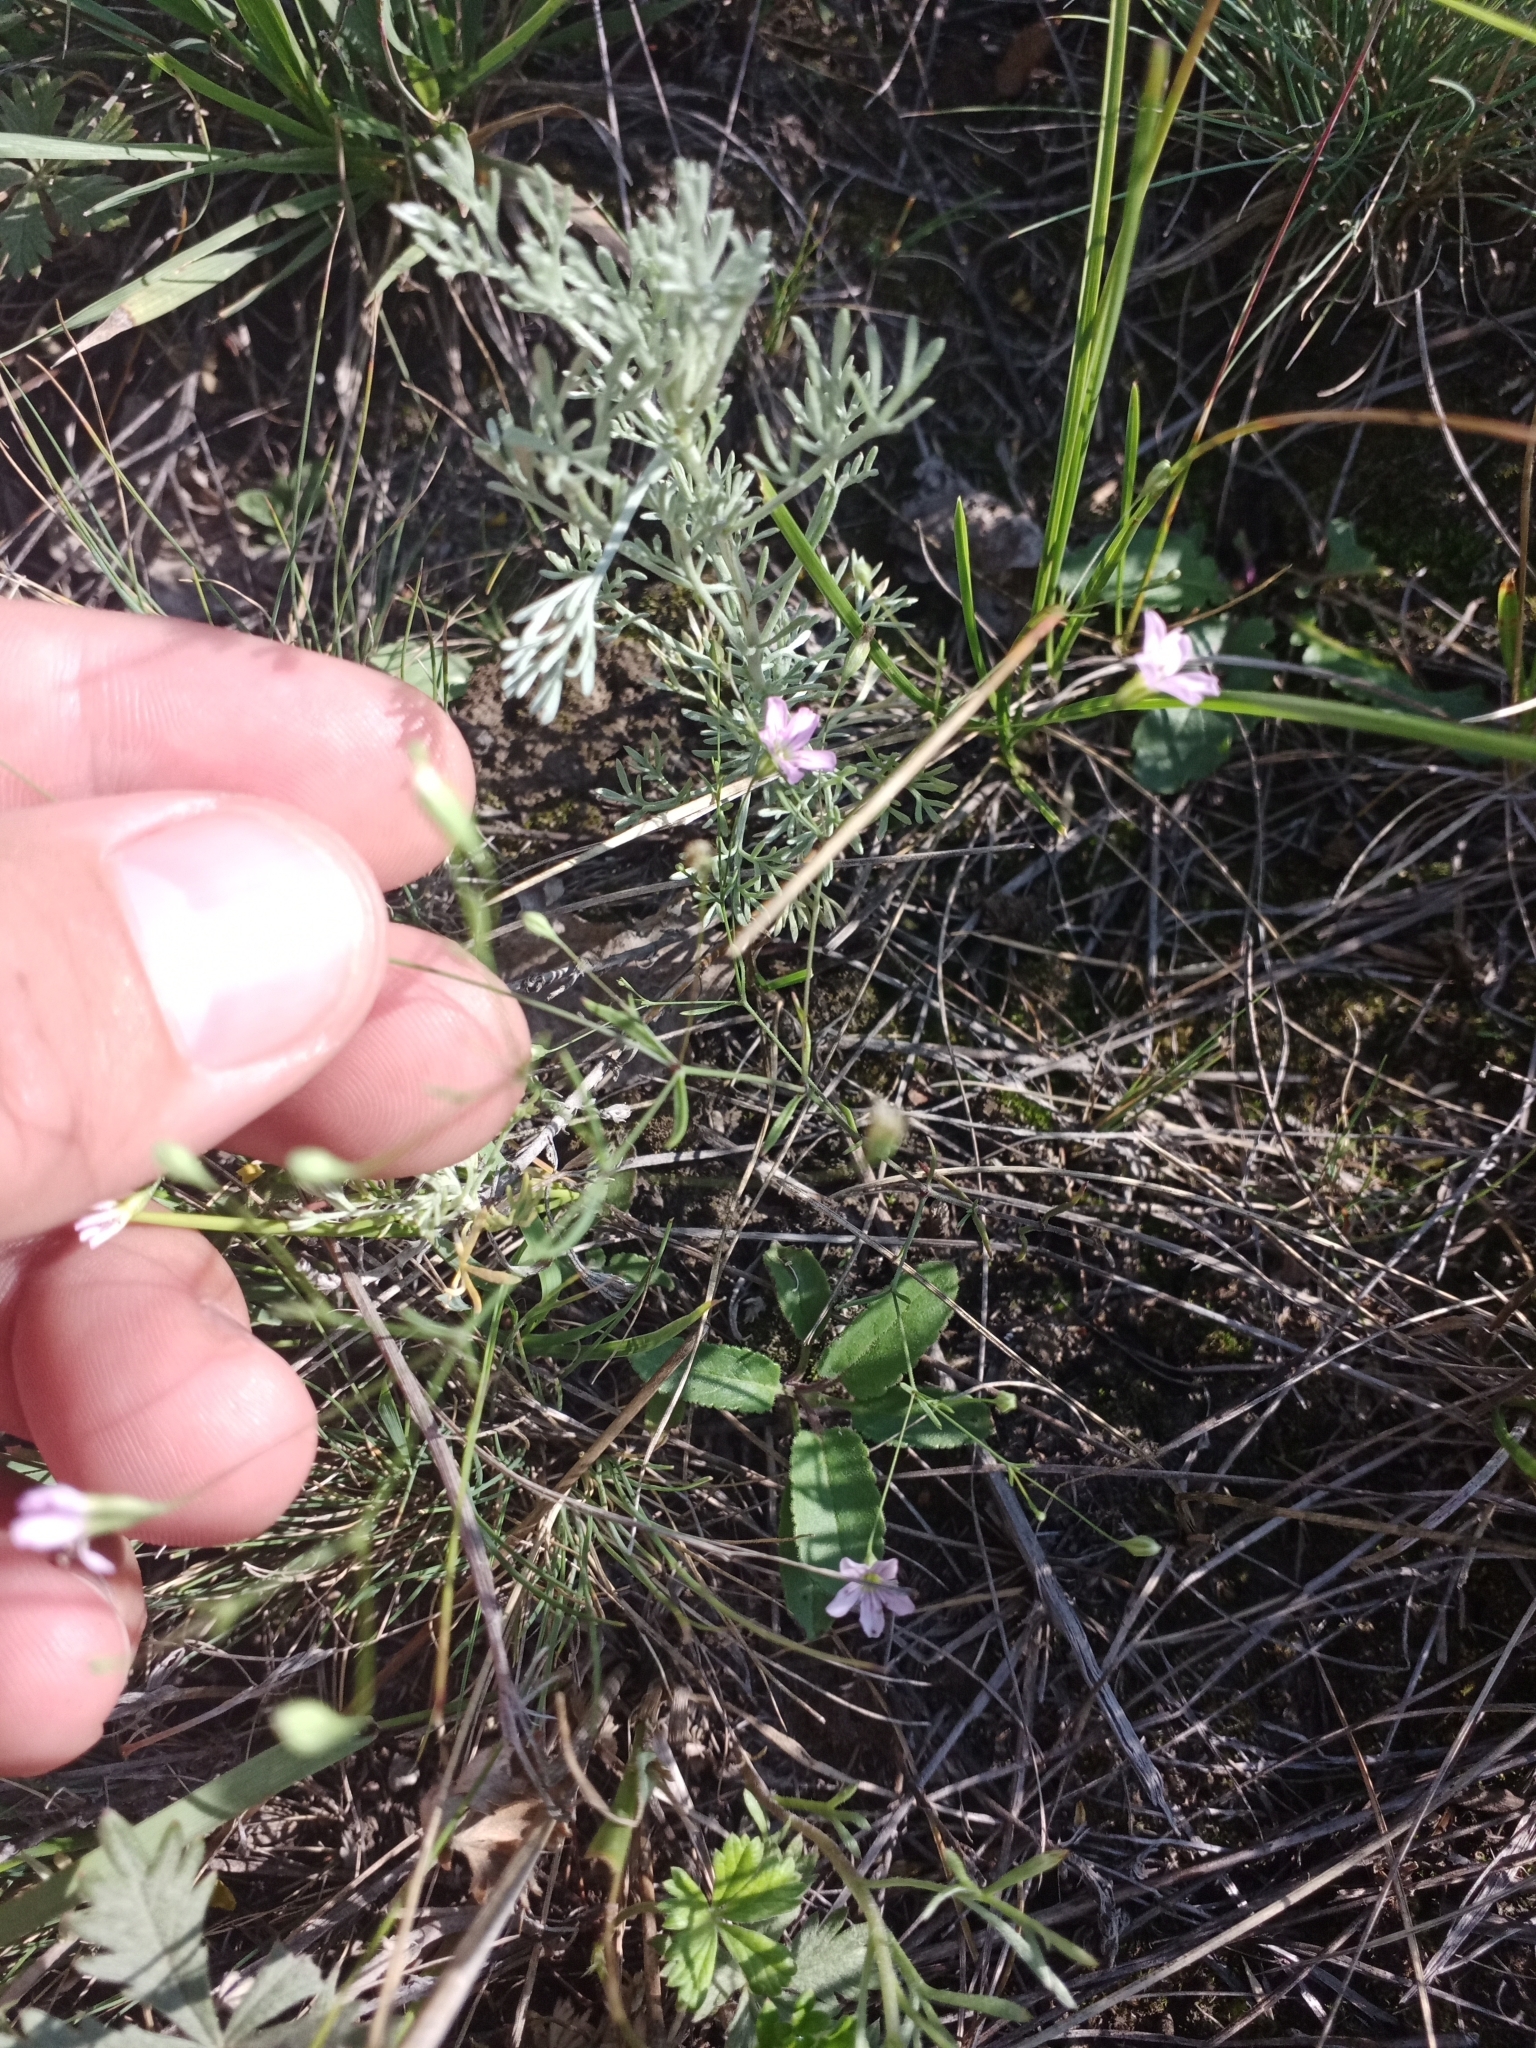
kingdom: Plantae
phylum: Tracheophyta
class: Magnoliopsida
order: Caryophyllales
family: Caryophyllaceae
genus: Psammophiliella
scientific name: Psammophiliella muralis
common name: Cushion baby's-breath
